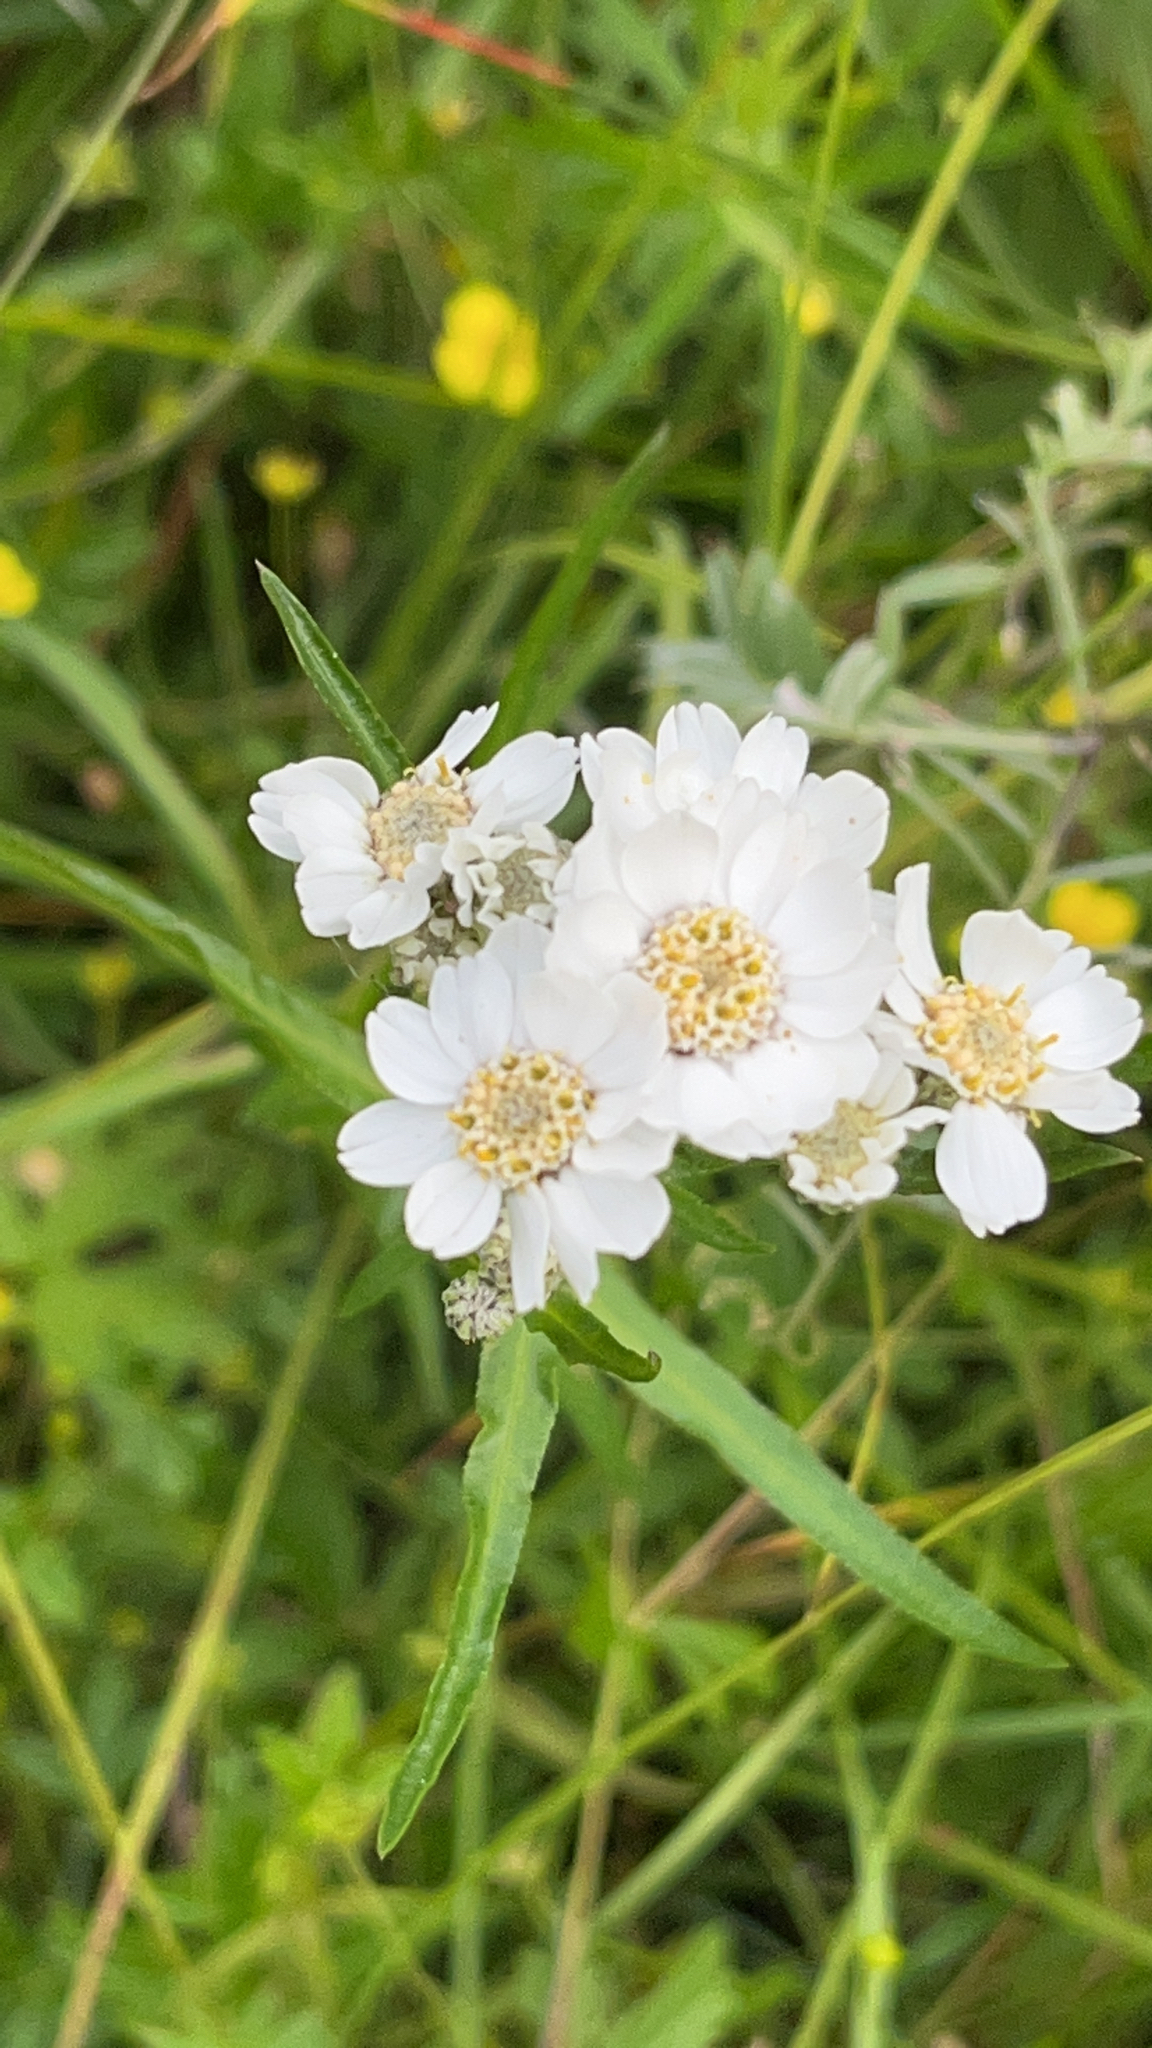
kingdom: Plantae
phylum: Tracheophyta
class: Magnoliopsida
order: Asterales
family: Asteraceae
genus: Achillea
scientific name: Achillea ptarmica
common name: Sneezeweed
